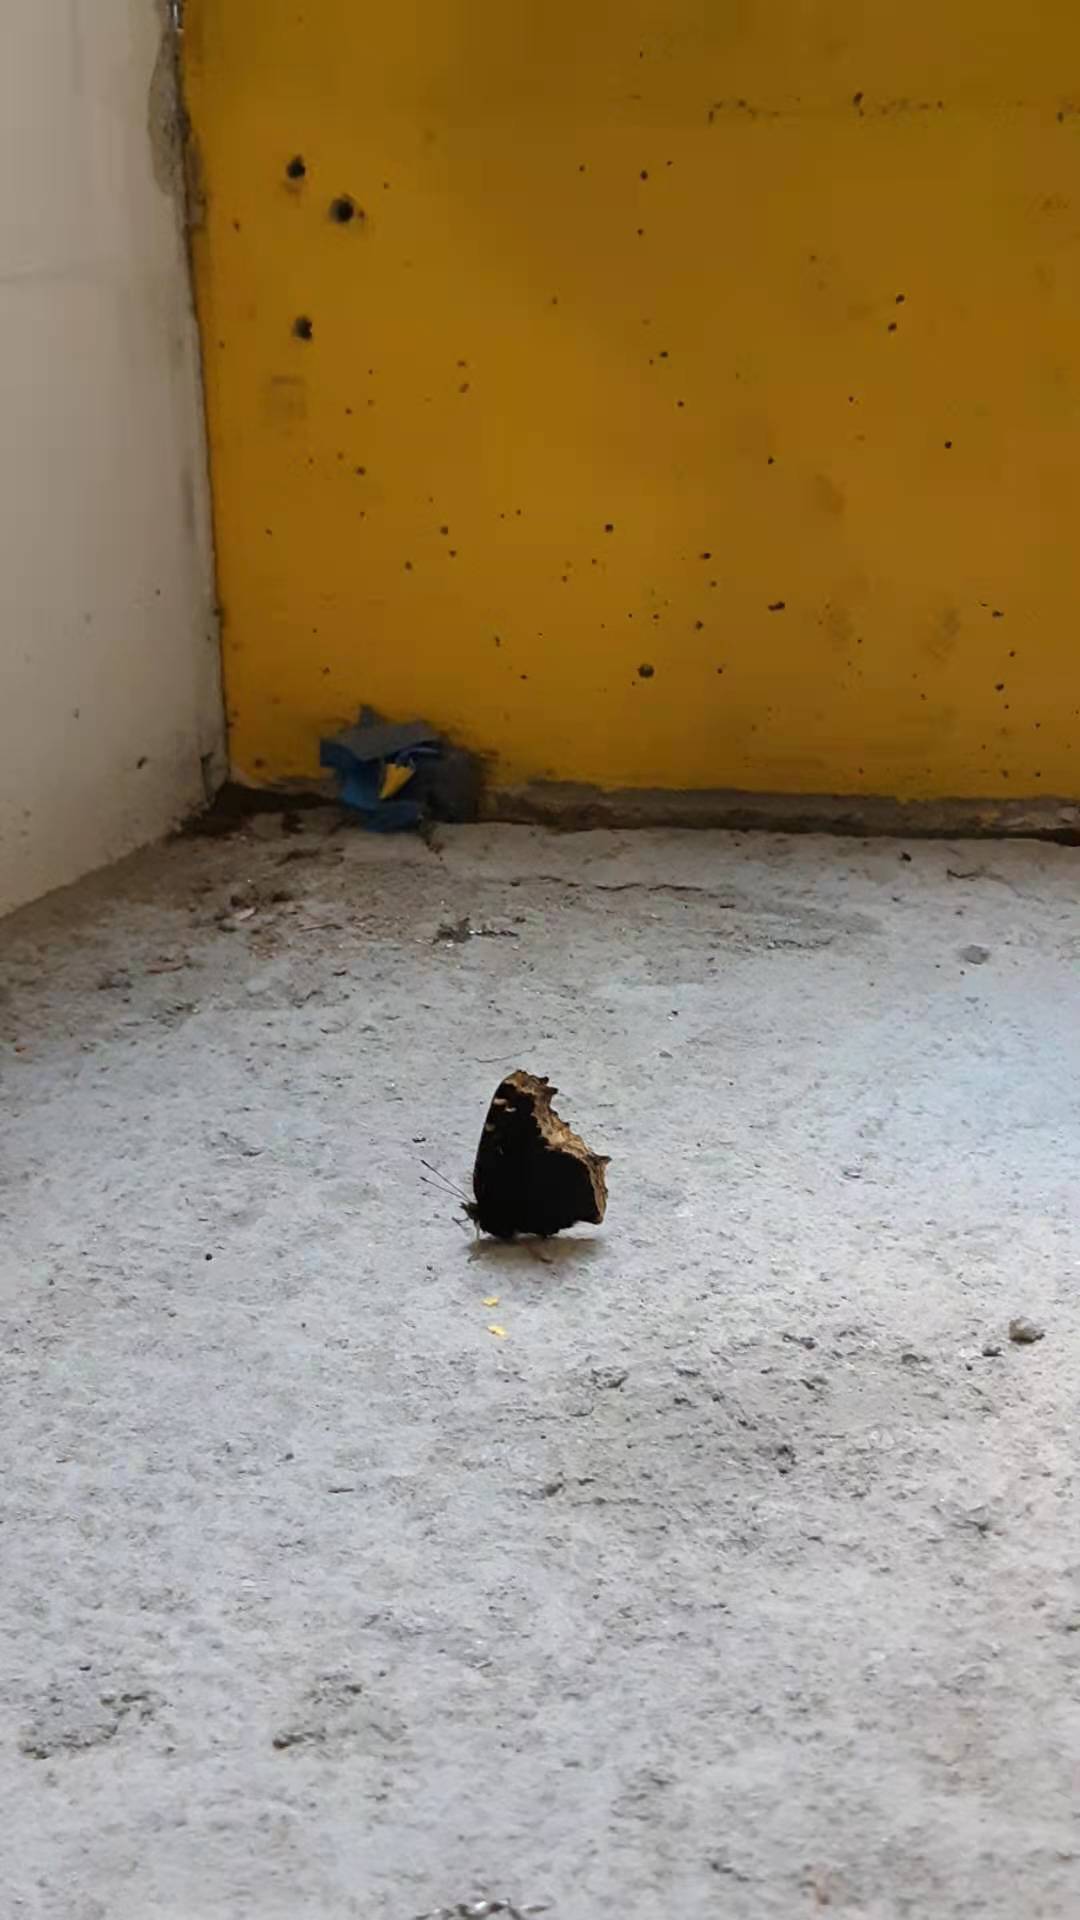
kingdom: Animalia
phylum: Arthropoda
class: Insecta
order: Lepidoptera
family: Nymphalidae
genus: Nymphalis
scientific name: Nymphalis antiopa
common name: Camberwell beauty
